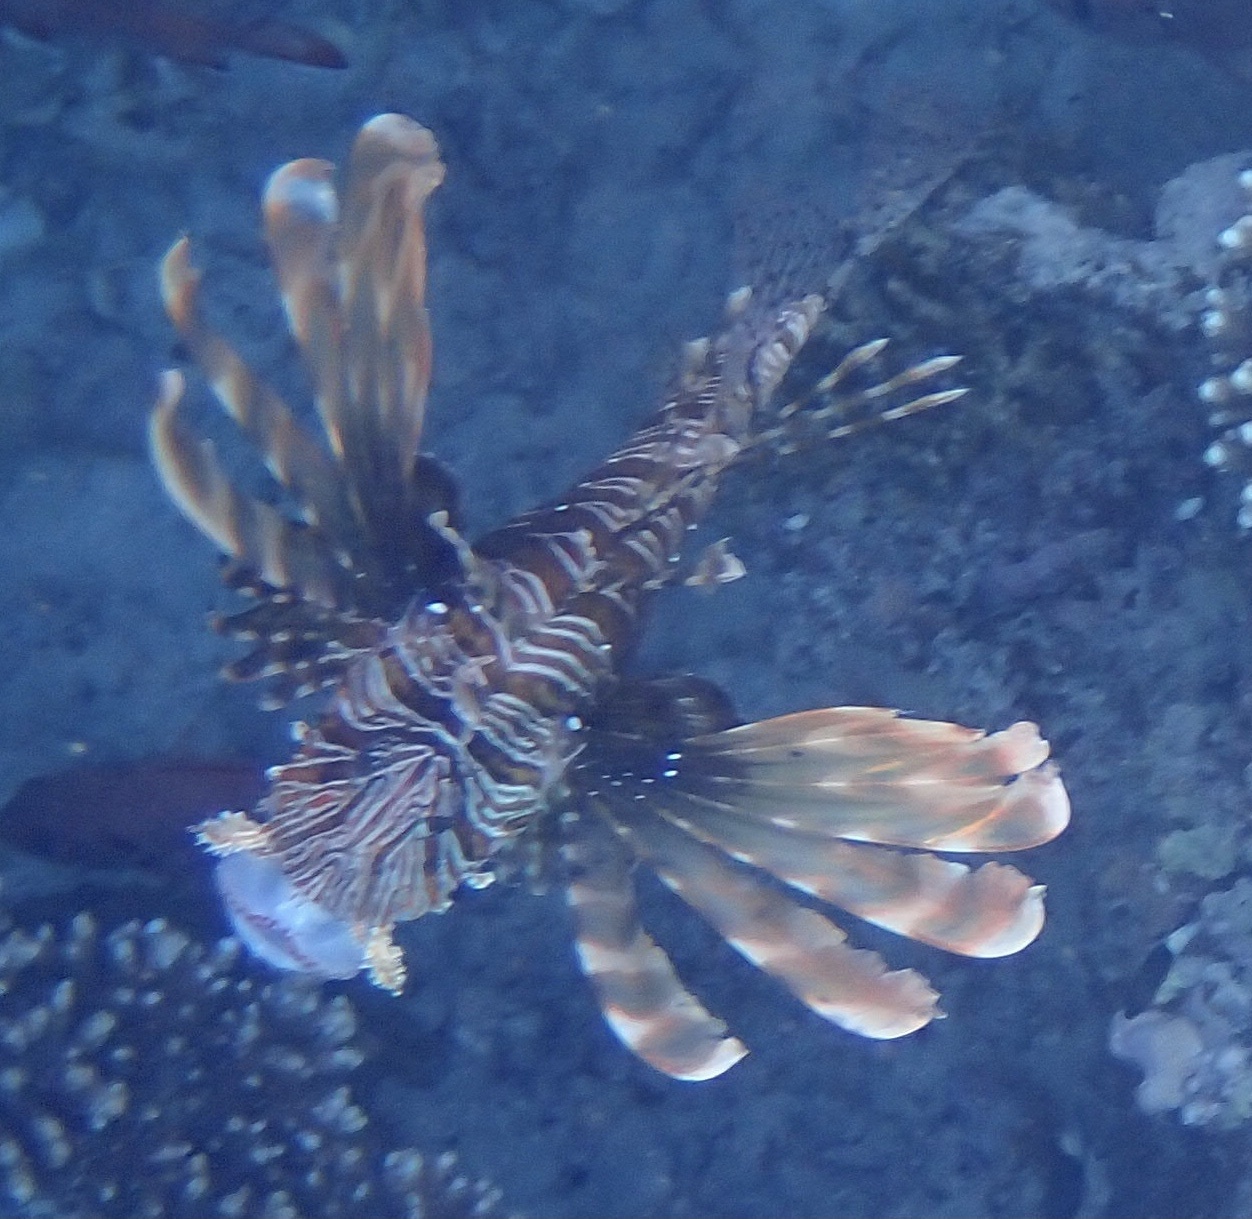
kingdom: Animalia
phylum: Chordata
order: Scorpaeniformes
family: Scorpaenidae
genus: Pterois
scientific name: Pterois miles
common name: Devil firefish
